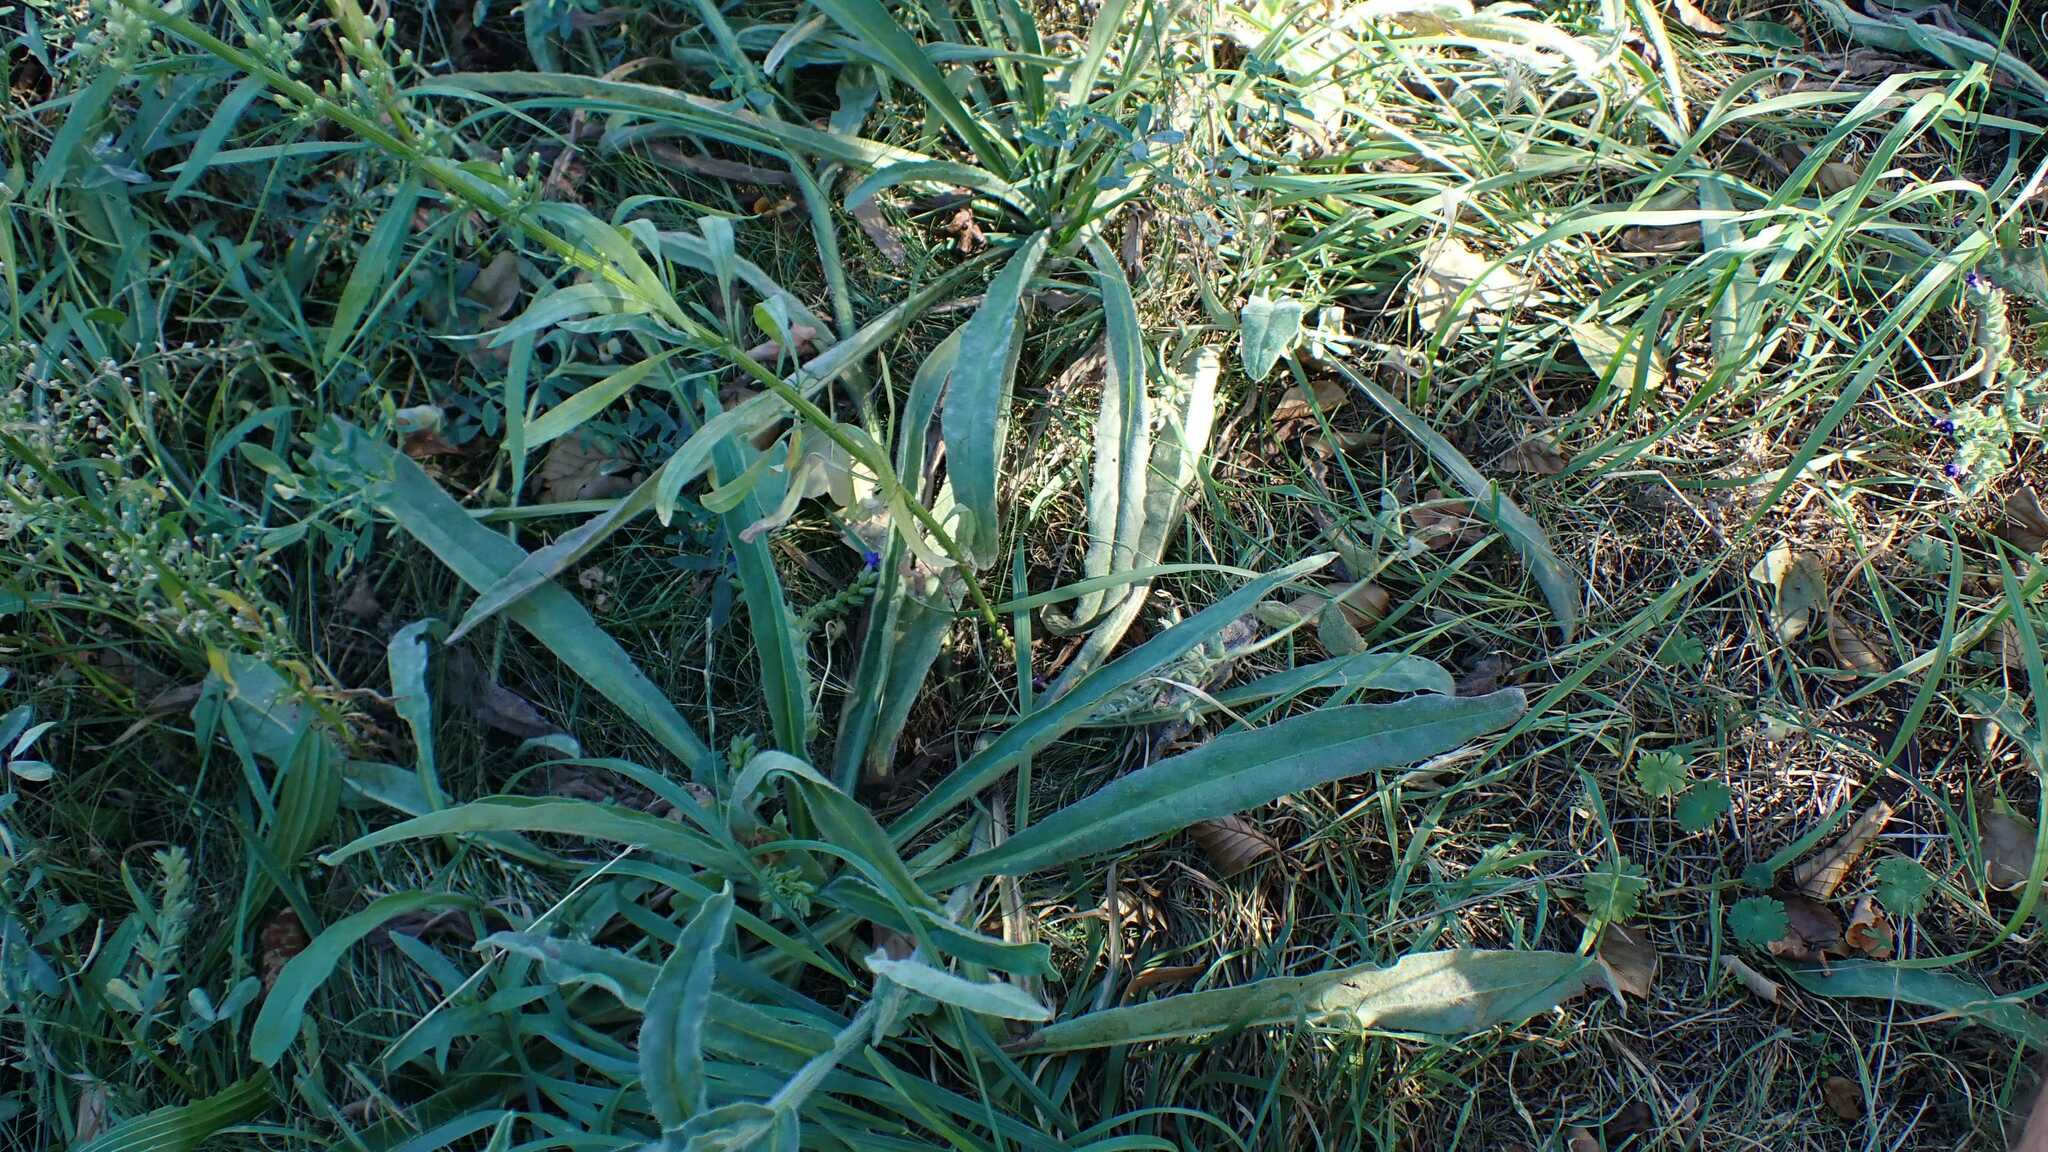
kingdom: Animalia
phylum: Arthropoda
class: Insecta
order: Hemiptera
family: Cicadellidae
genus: Psammotettix
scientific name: Psammotettix
